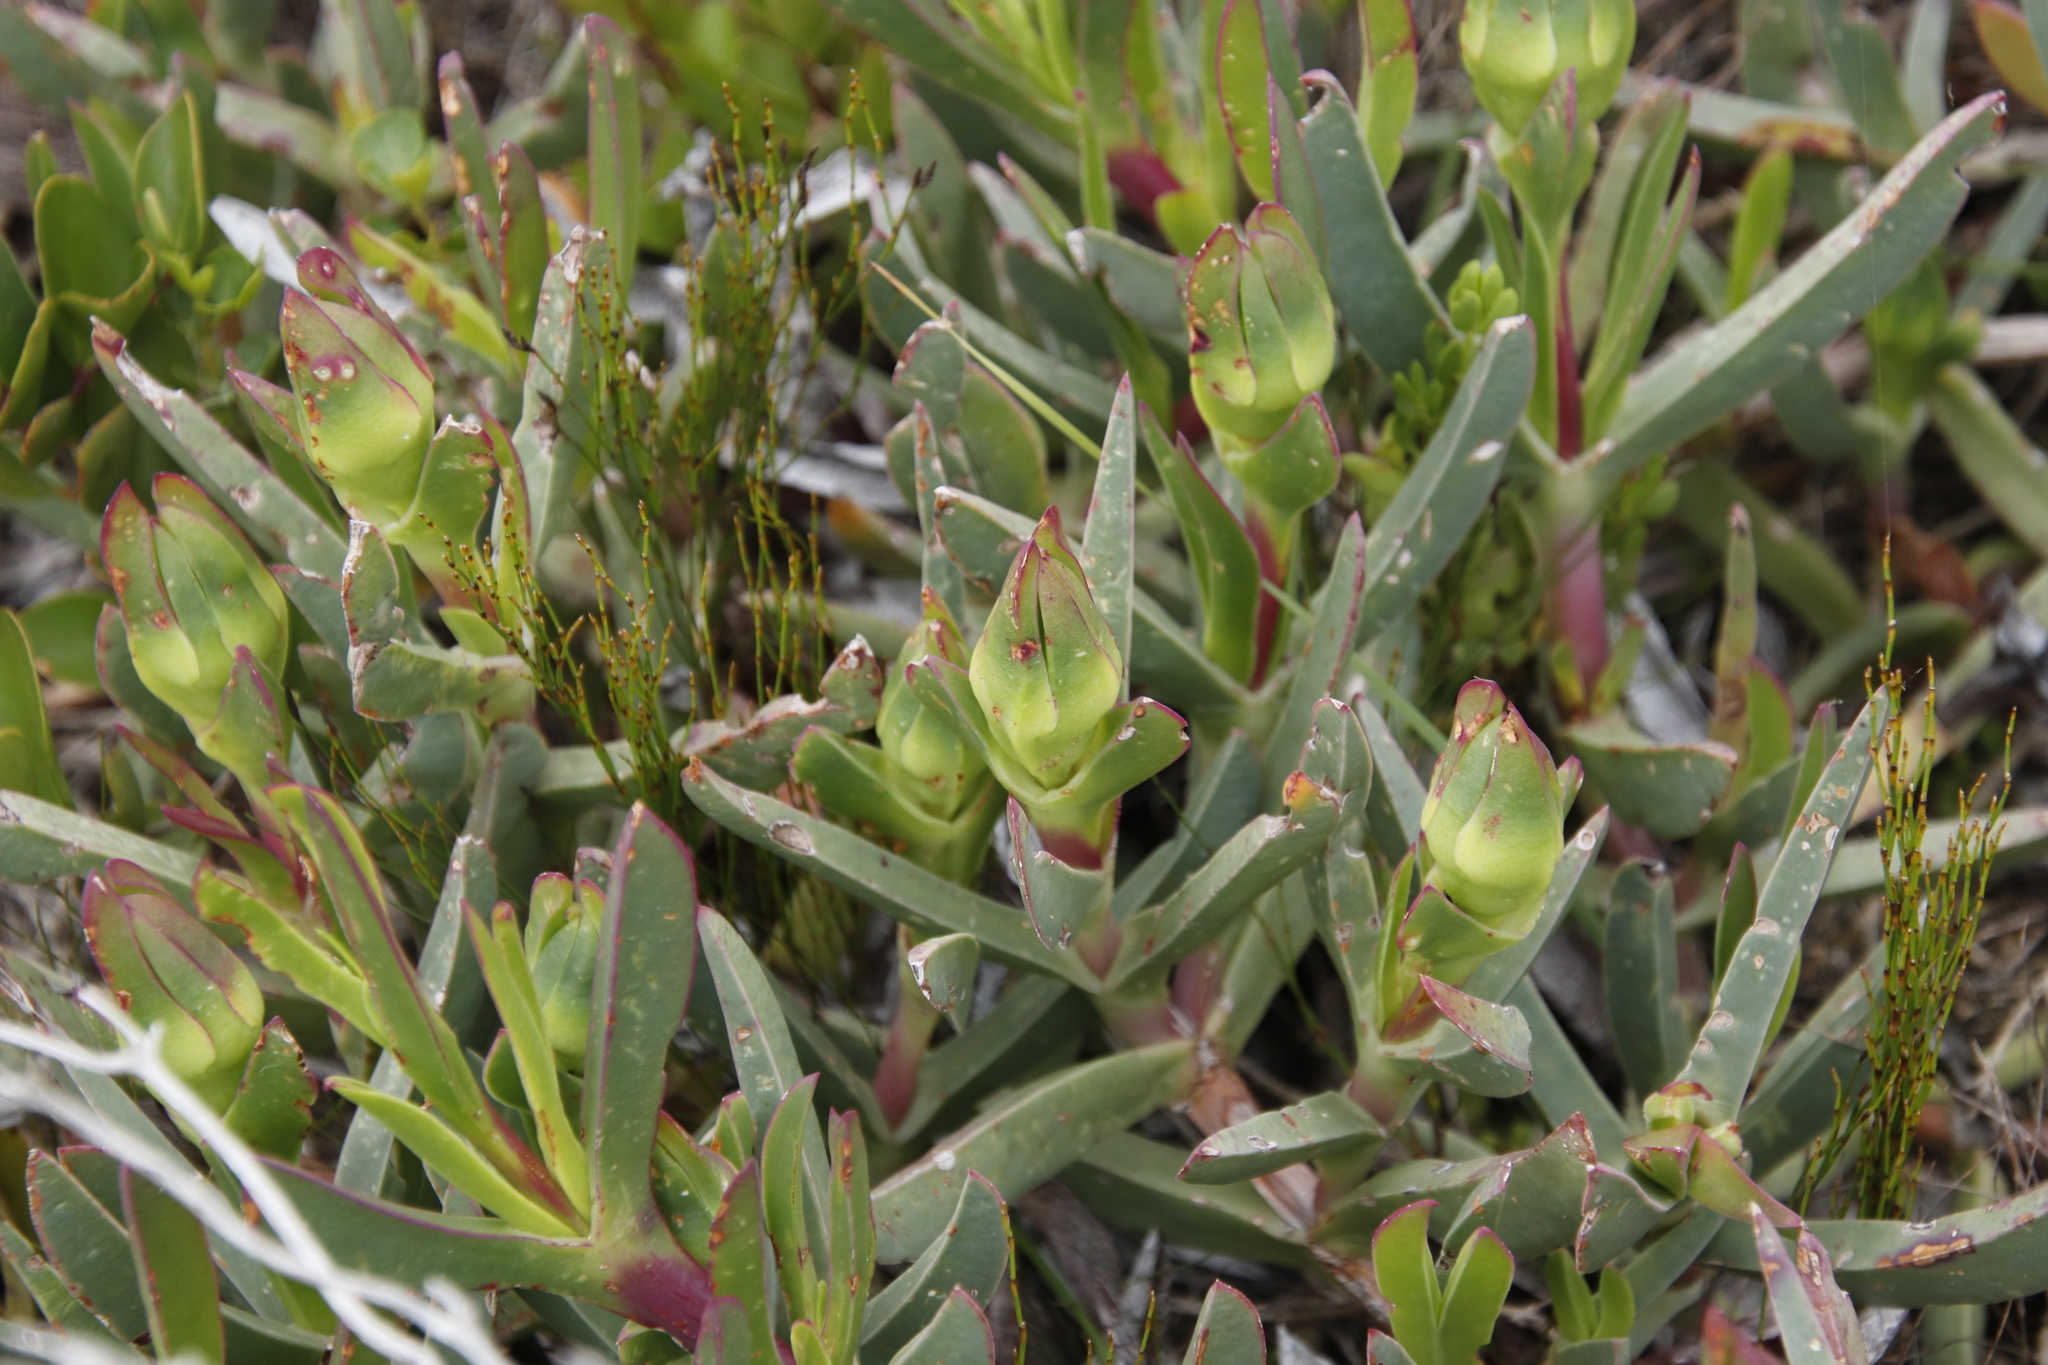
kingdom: Plantae
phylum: Tracheophyta
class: Magnoliopsida
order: Caryophyllales
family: Aizoaceae
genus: Carpobrotus
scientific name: Carpobrotus acinaciformis
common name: Sally-my-handsome
